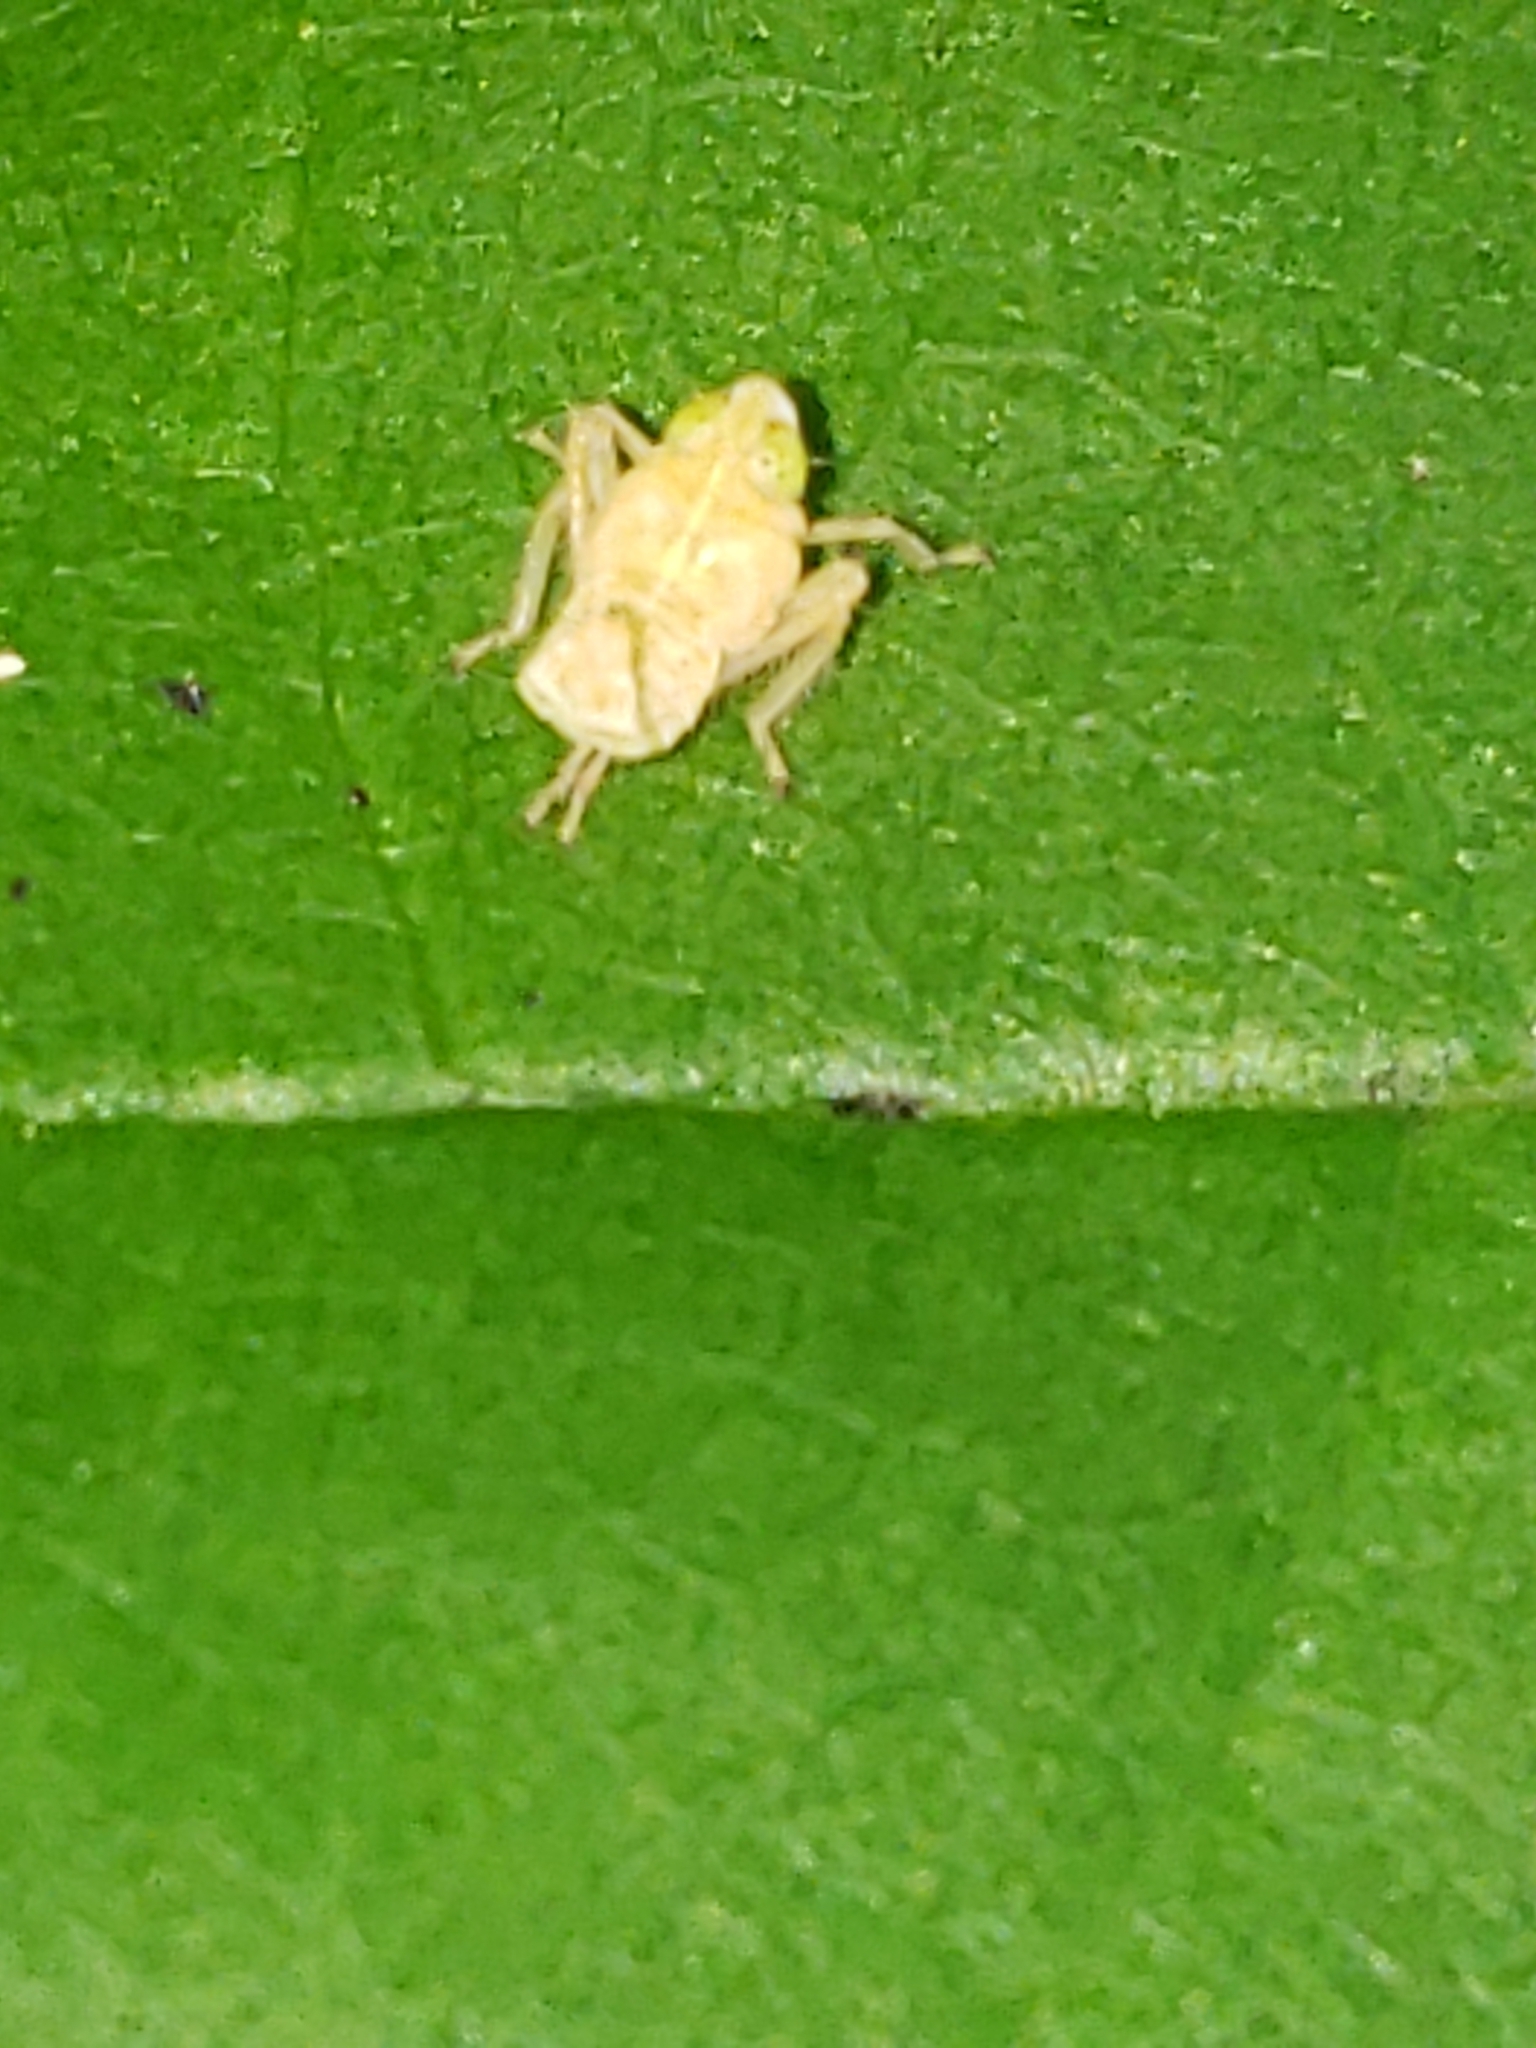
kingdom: Animalia
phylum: Arthropoda
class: Insecta
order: Hemiptera
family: Cicadellidae
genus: Jikradia
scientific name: Jikradia olitoria
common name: Coppery leafhopper
